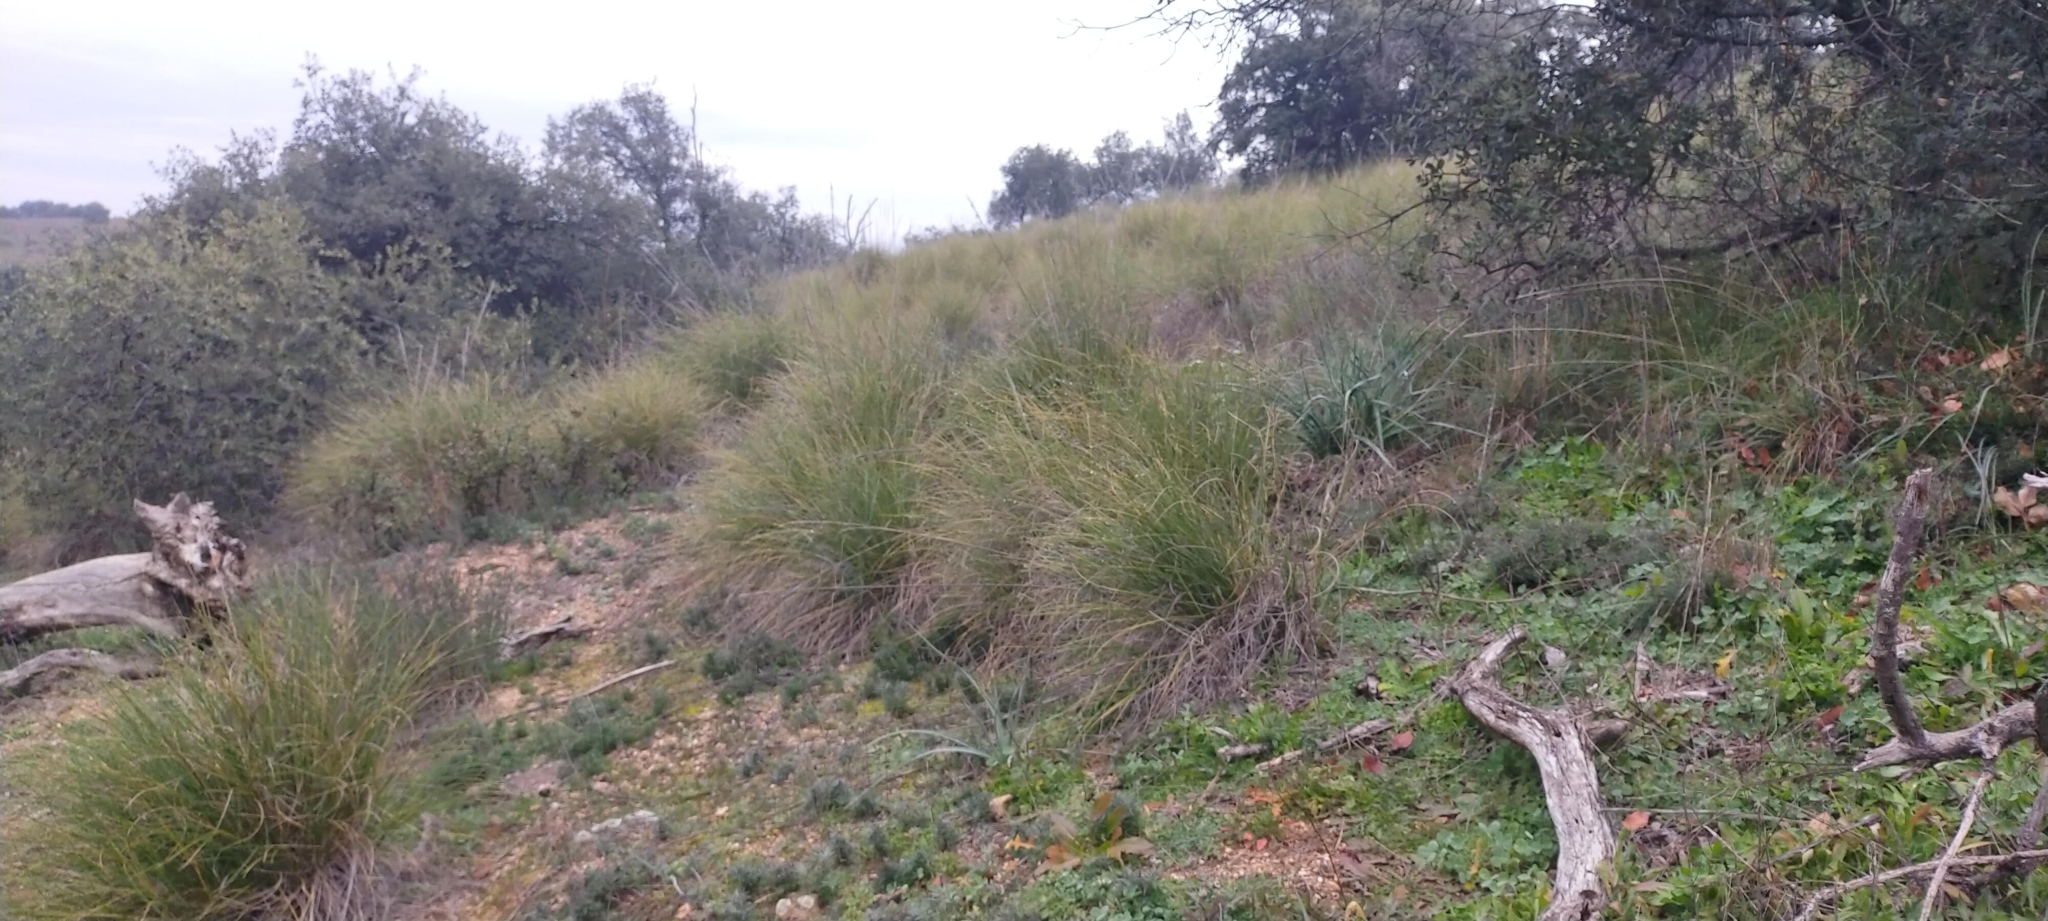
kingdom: Plantae
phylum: Tracheophyta
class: Liliopsida
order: Poales
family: Poaceae
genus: Macrochloa
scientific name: Macrochloa tenacissima
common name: Alfa grass
